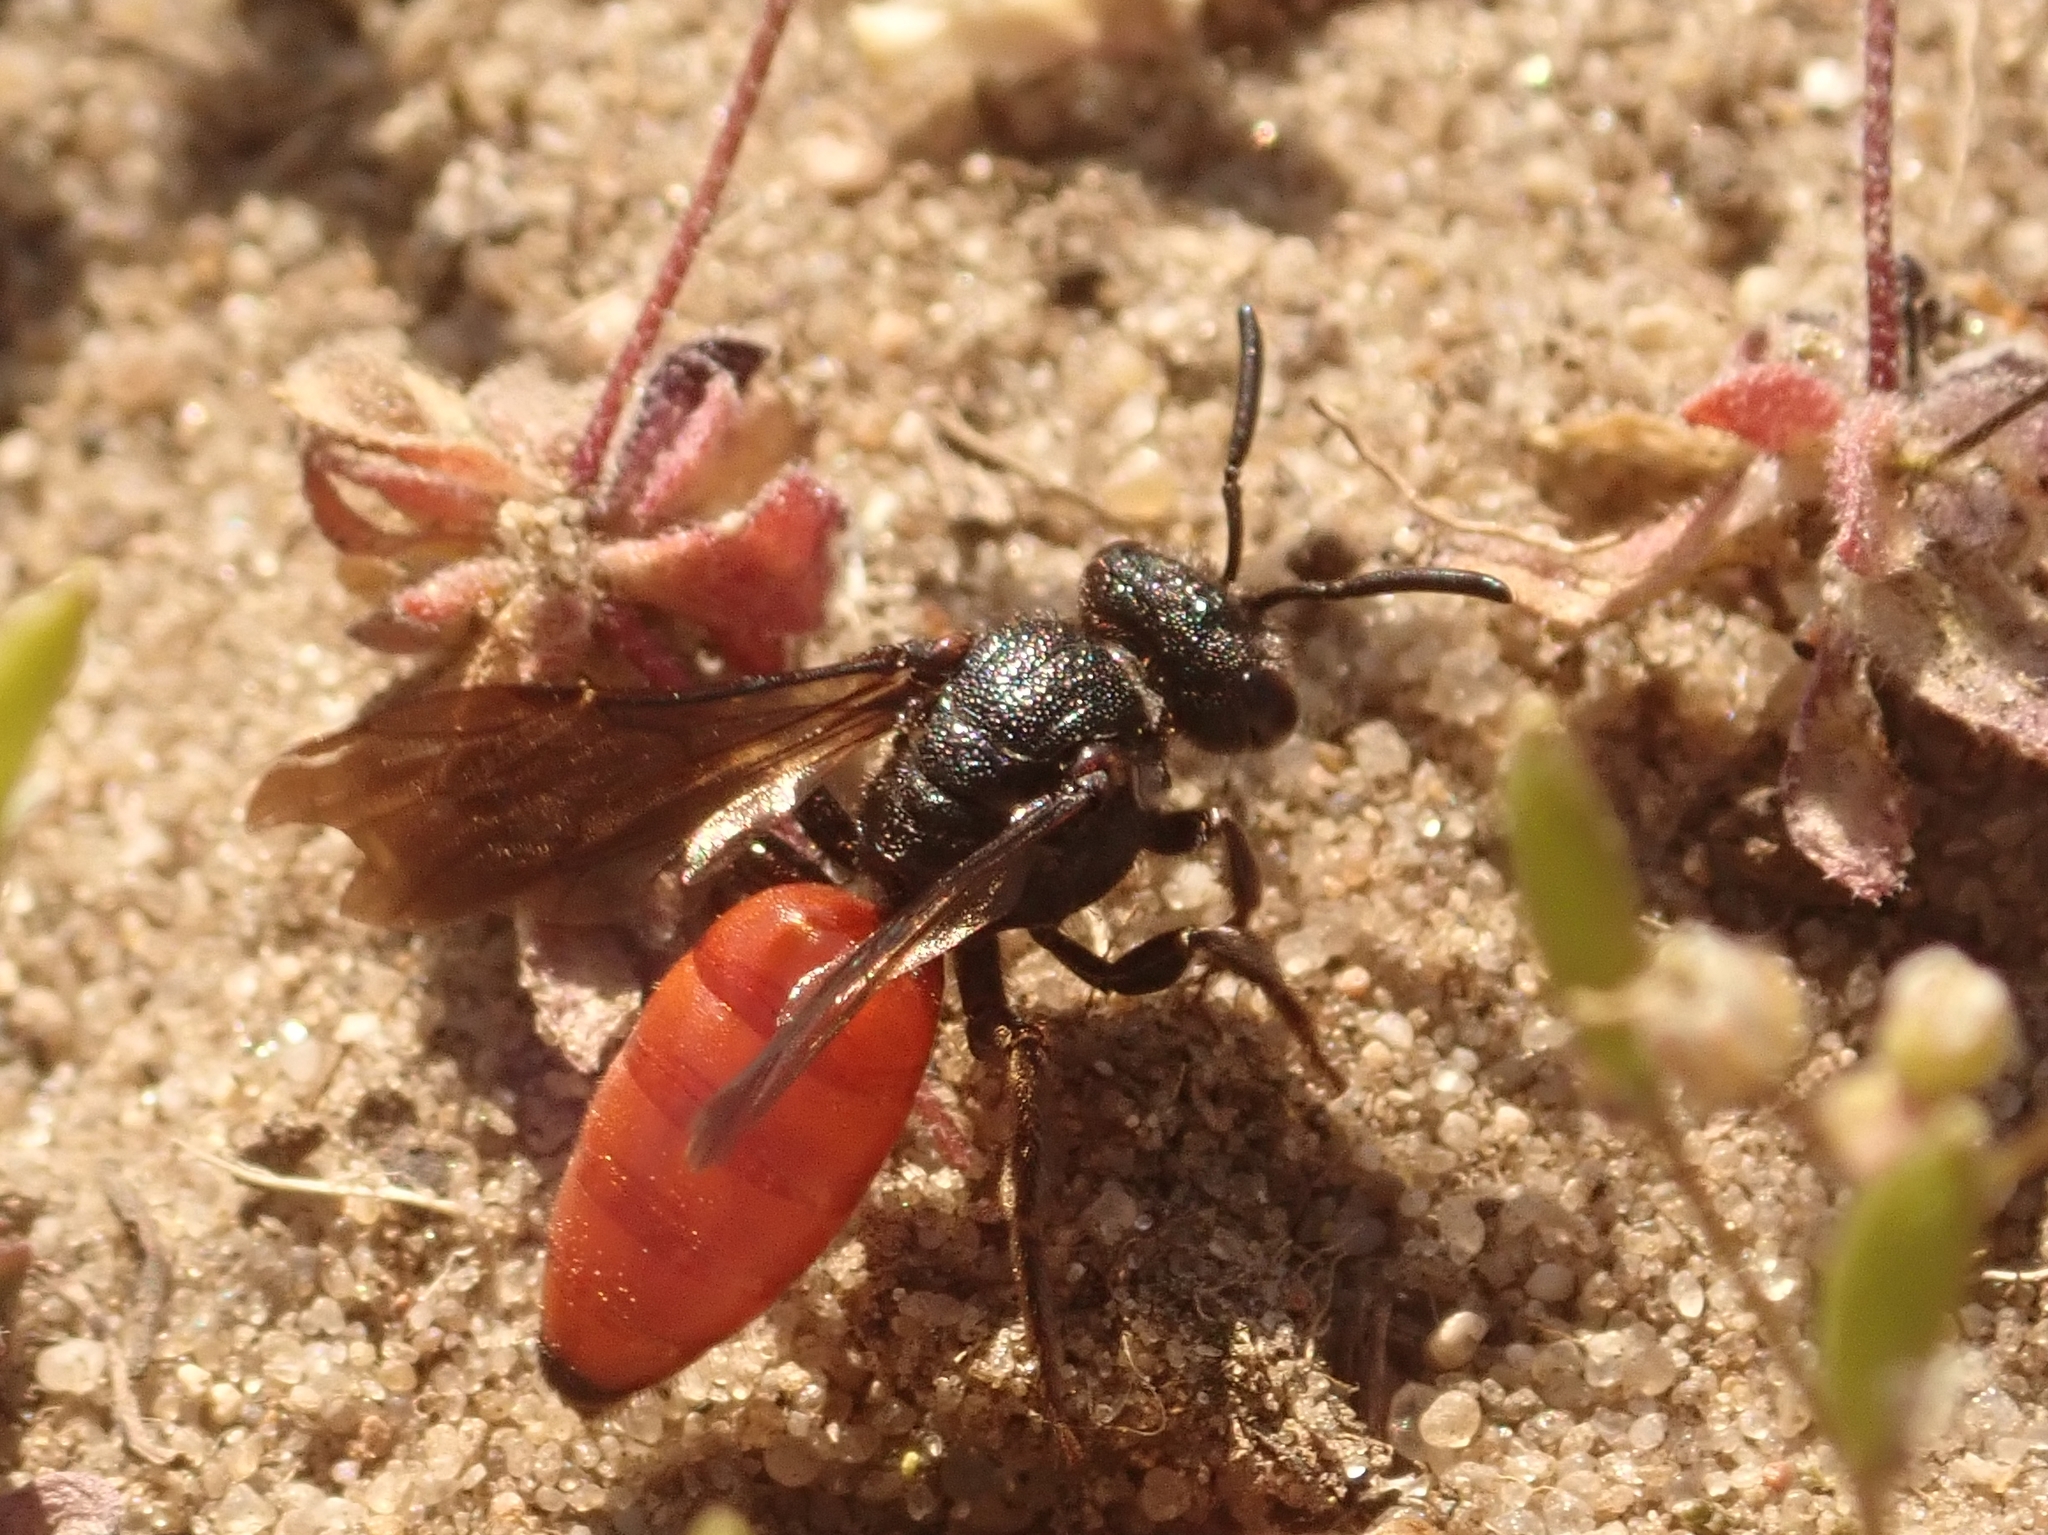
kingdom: Animalia
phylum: Arthropoda
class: Insecta
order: Hymenoptera
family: Halictidae
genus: Sphecodes
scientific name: Sphecodes albilabris
